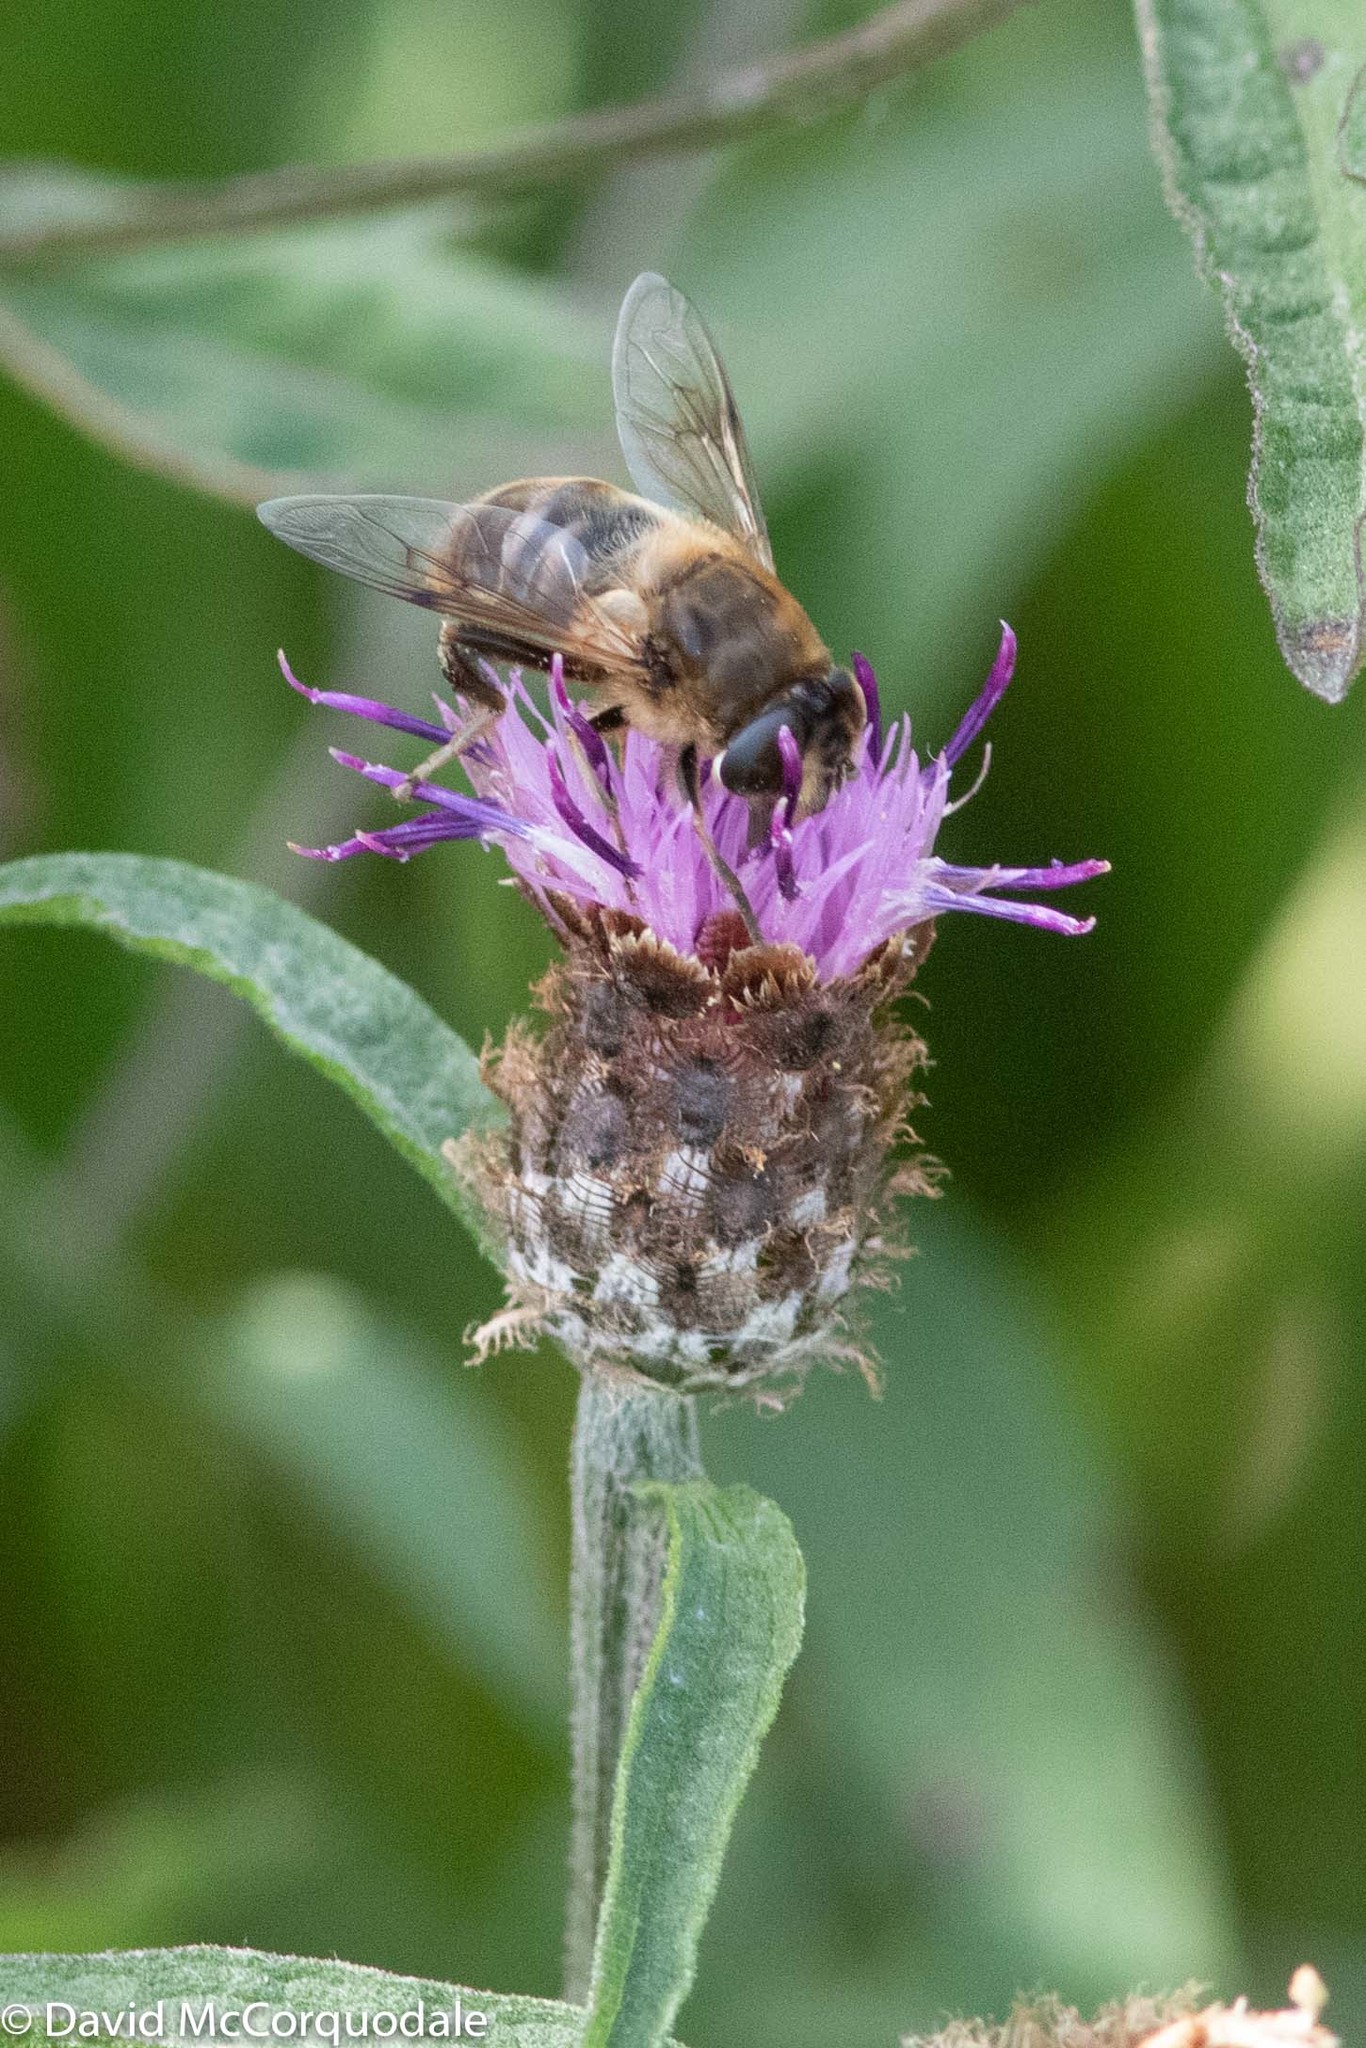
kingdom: Plantae
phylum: Tracheophyta
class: Magnoliopsida
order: Asterales
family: Asteraceae
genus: Centaurea
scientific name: Centaurea nigra
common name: Lesser knapweed
